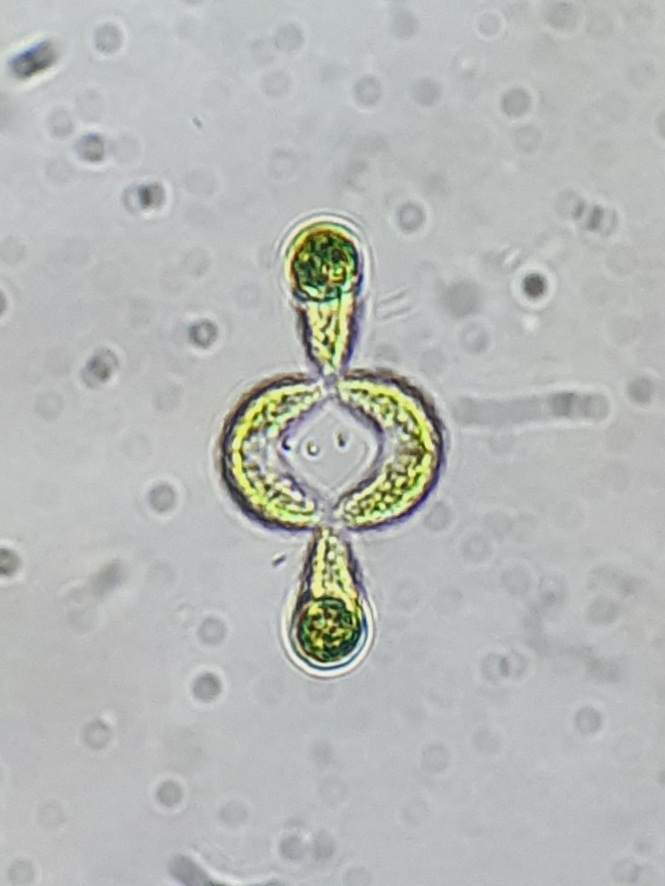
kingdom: Plantae
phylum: Chlorophyta
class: Chlorophyceae
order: Sphaeropleales
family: Scenedesmaceae
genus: Tetrallantos
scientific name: Tetrallantos lagerheimii
